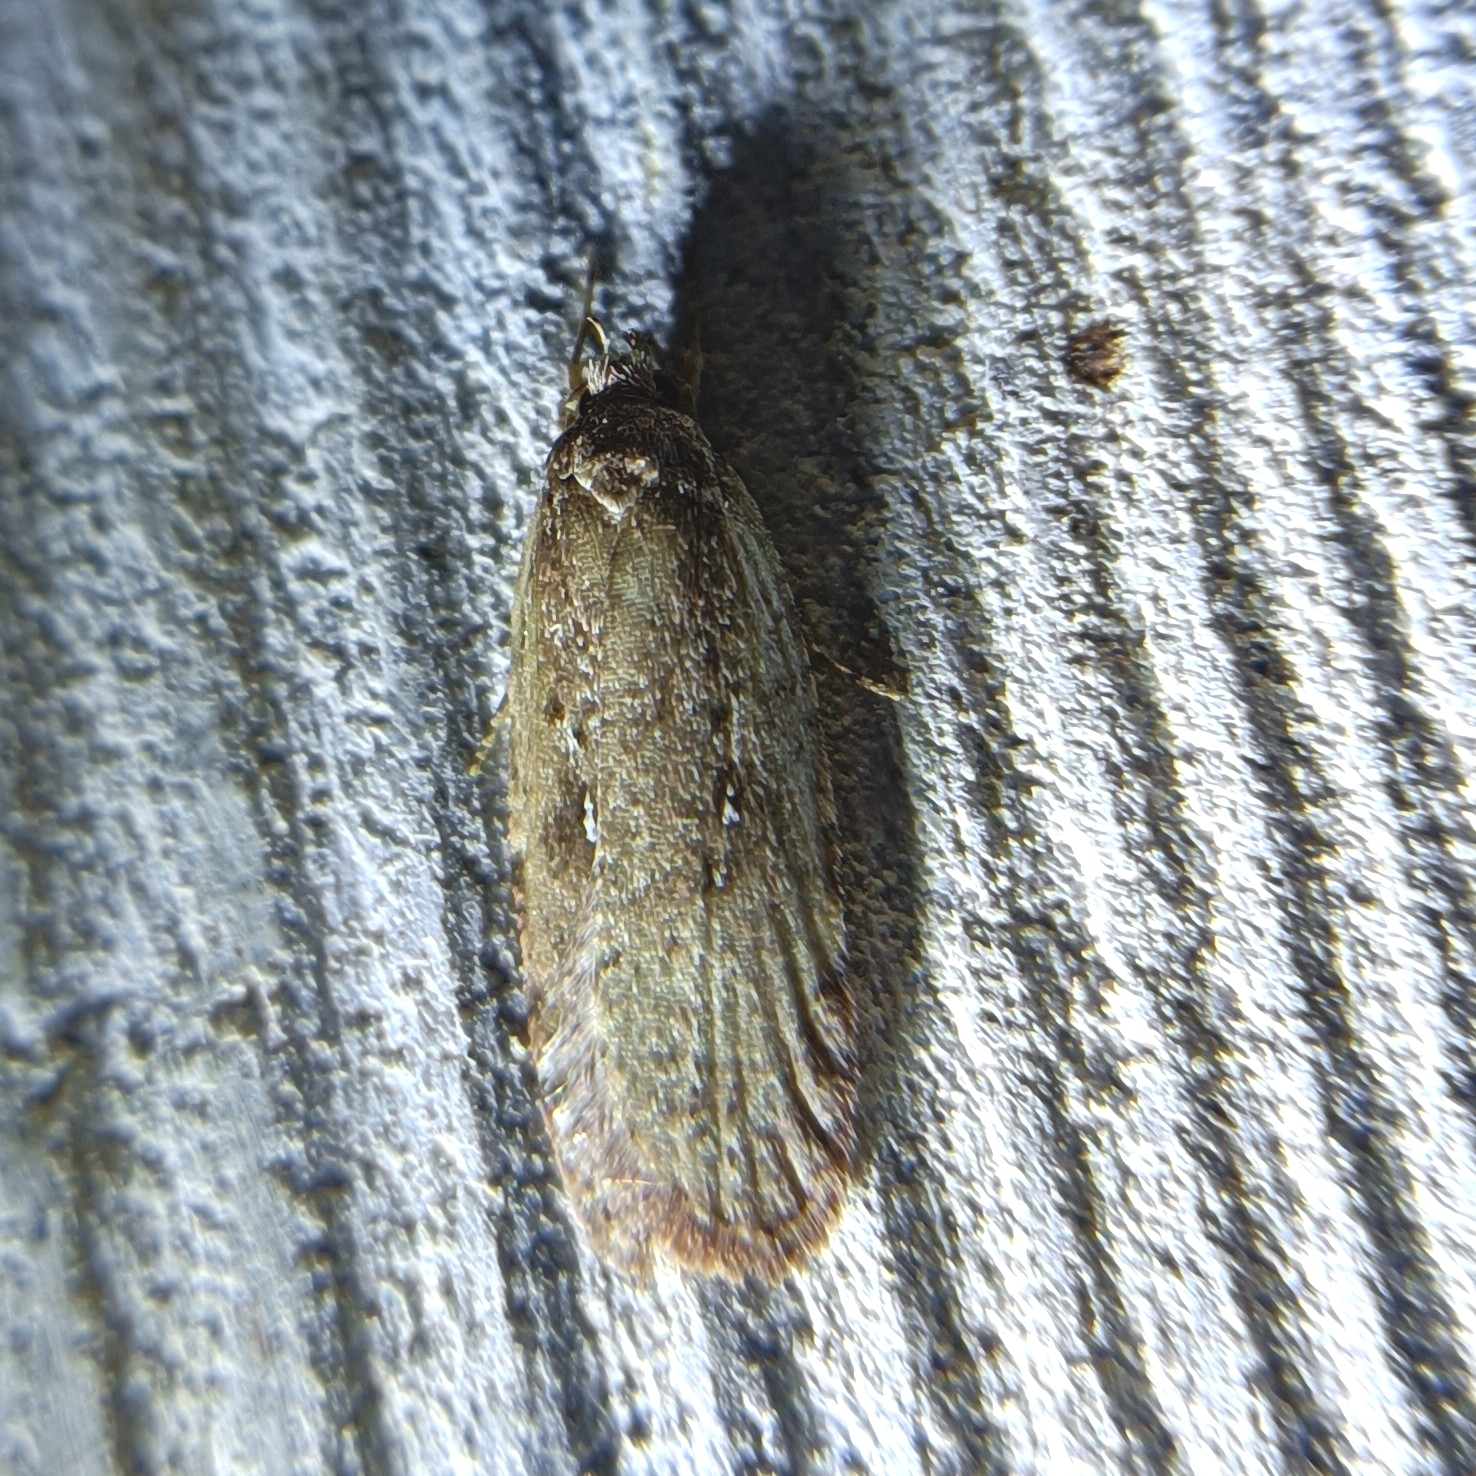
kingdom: Animalia
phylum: Arthropoda
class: Insecta
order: Lepidoptera
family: Depressariidae
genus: Agonopterix
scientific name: Agonopterix heracliana
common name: Common flat-body
